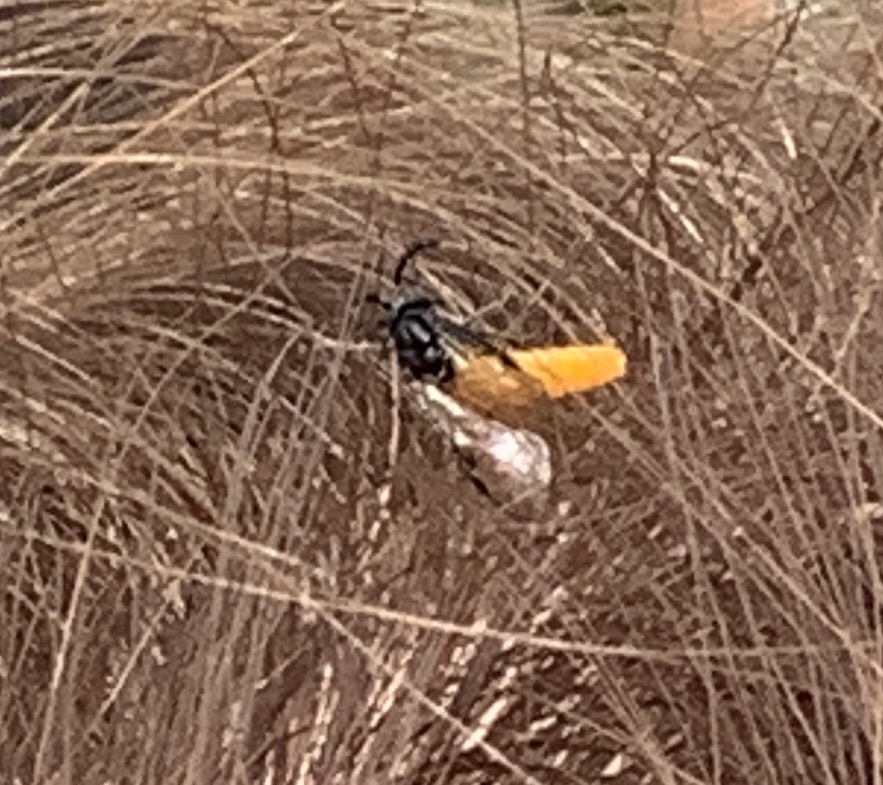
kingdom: Animalia
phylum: Arthropoda
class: Insecta
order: Hymenoptera
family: Argidae
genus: Arge
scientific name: Arge pagana
